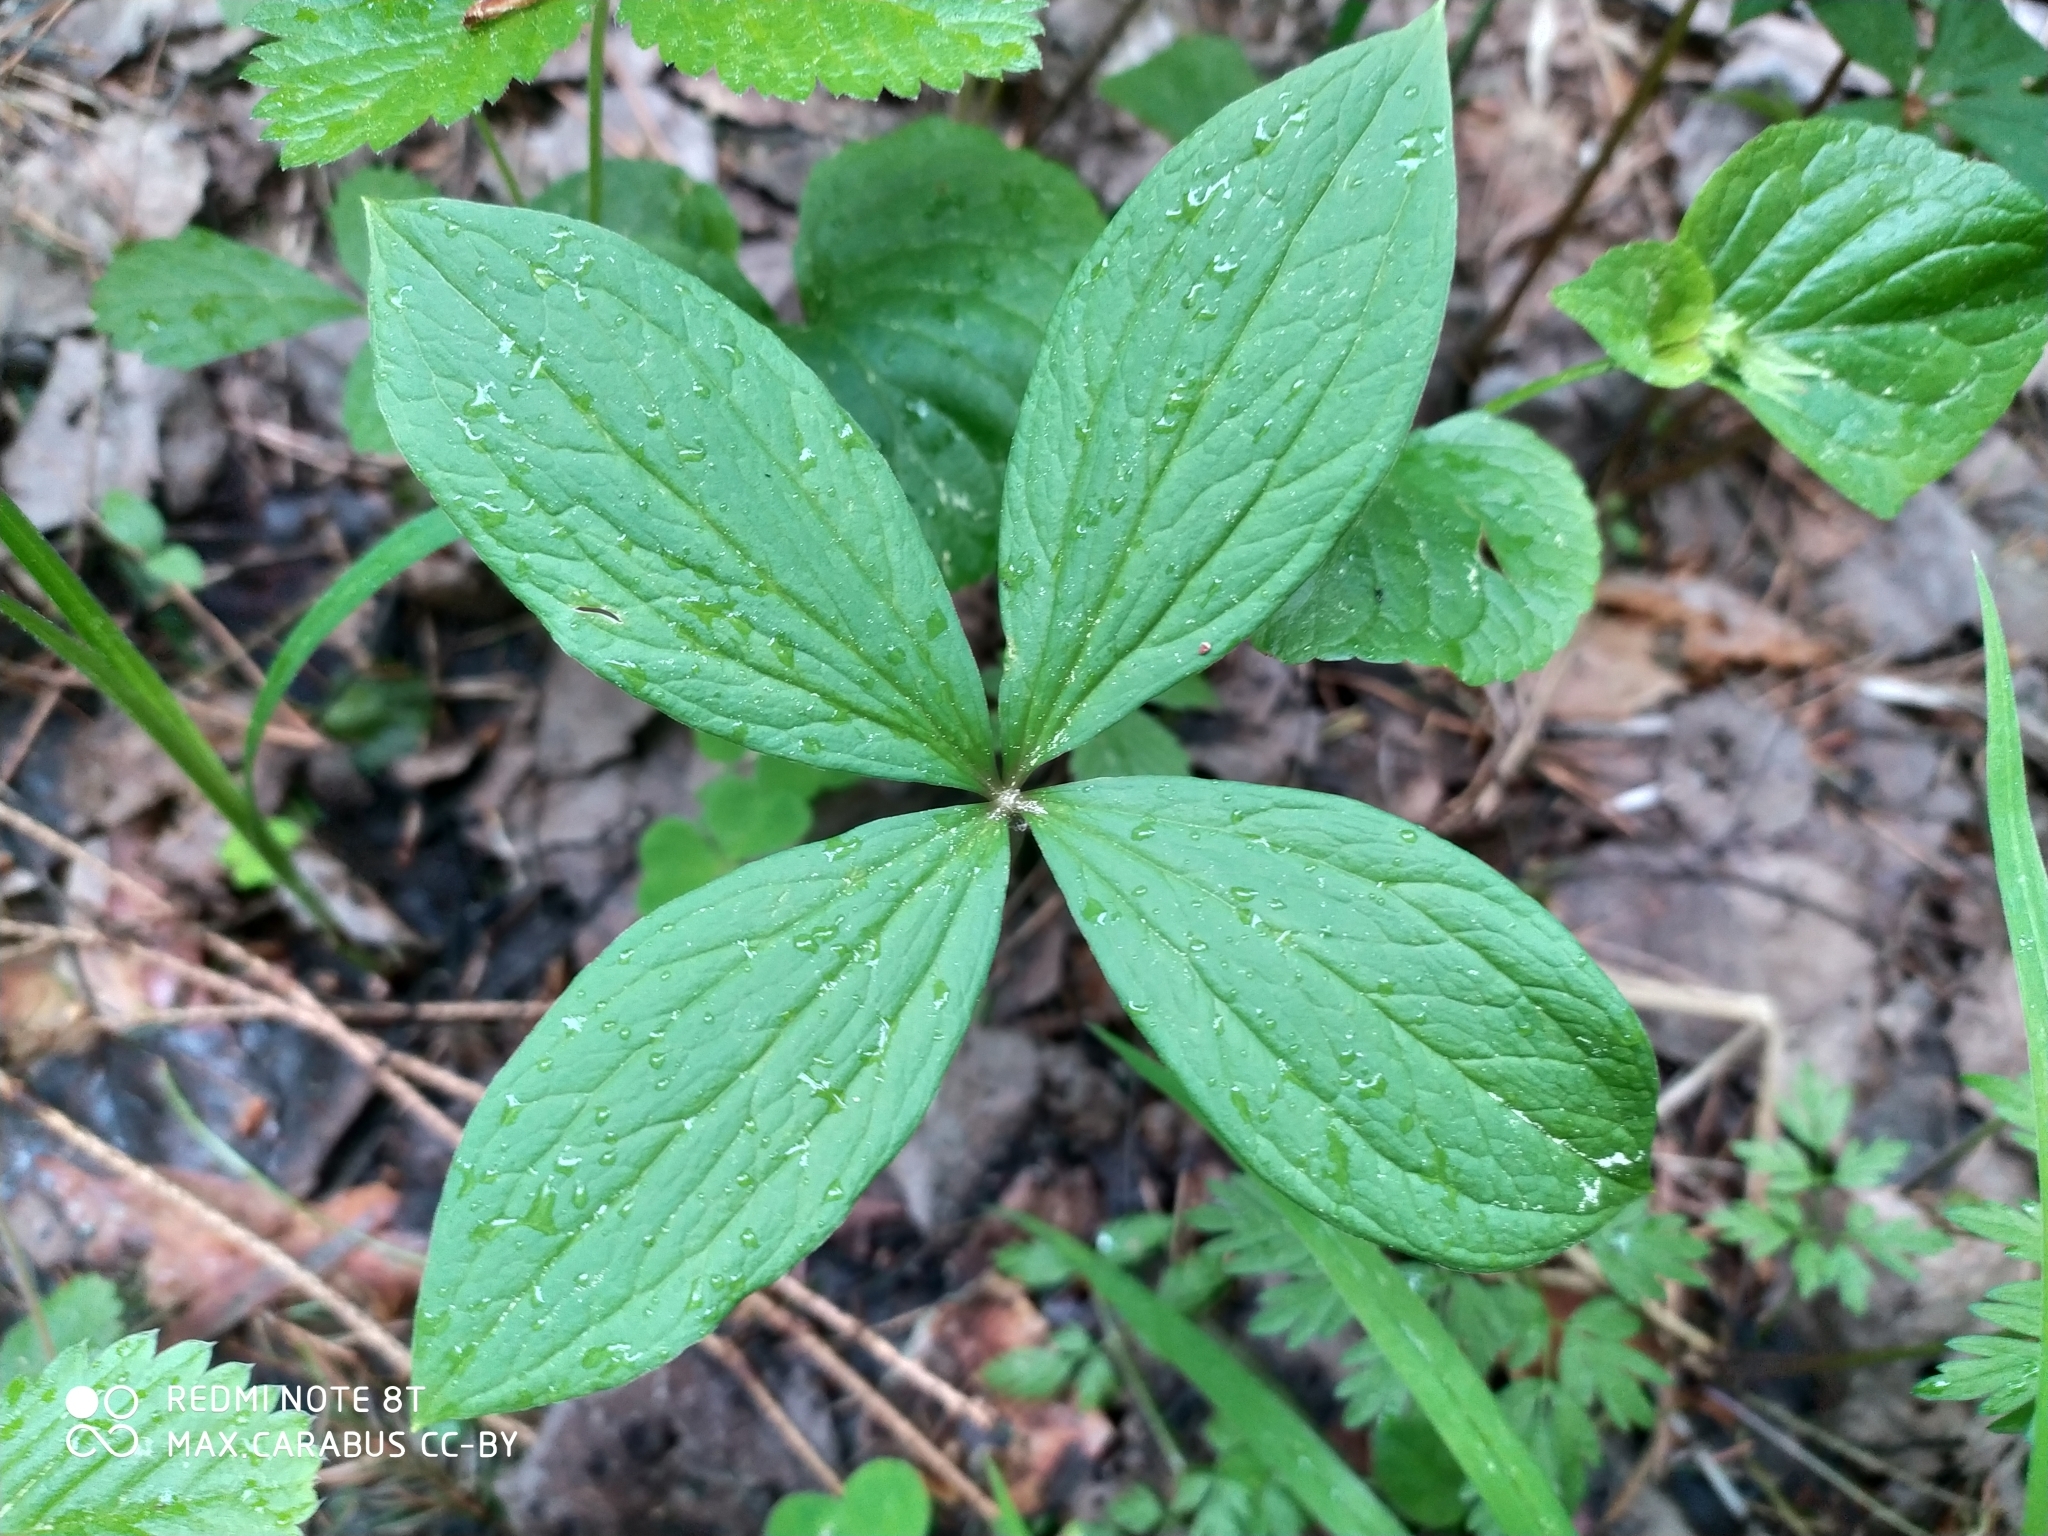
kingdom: Plantae
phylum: Tracheophyta
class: Liliopsida
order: Liliales
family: Melanthiaceae
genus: Paris
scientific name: Paris quadrifolia
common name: Herb-paris
